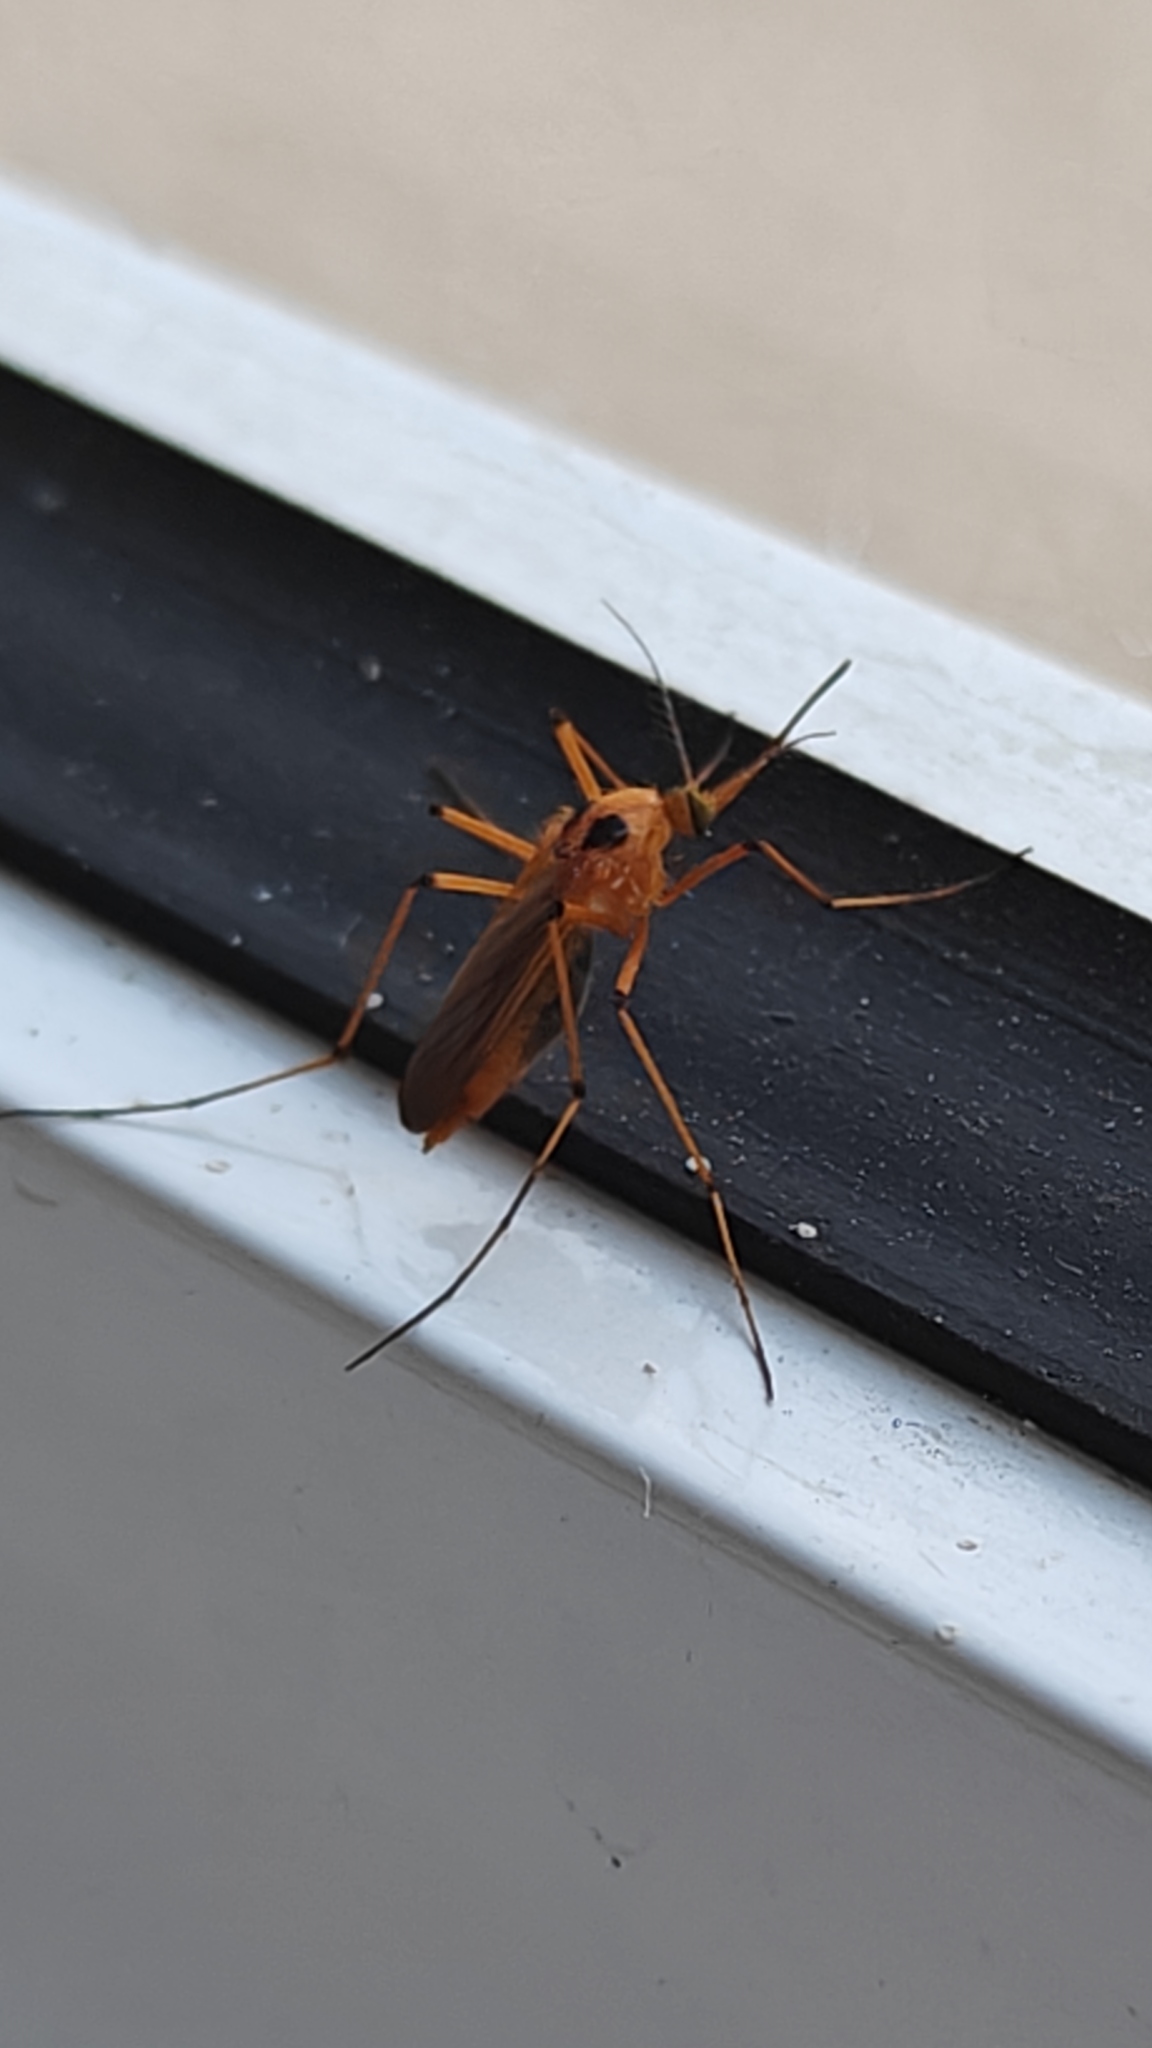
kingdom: Animalia
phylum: Arthropoda
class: Insecta
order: Diptera
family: Culicidae
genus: Aedes
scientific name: Aedes bimaculatus
